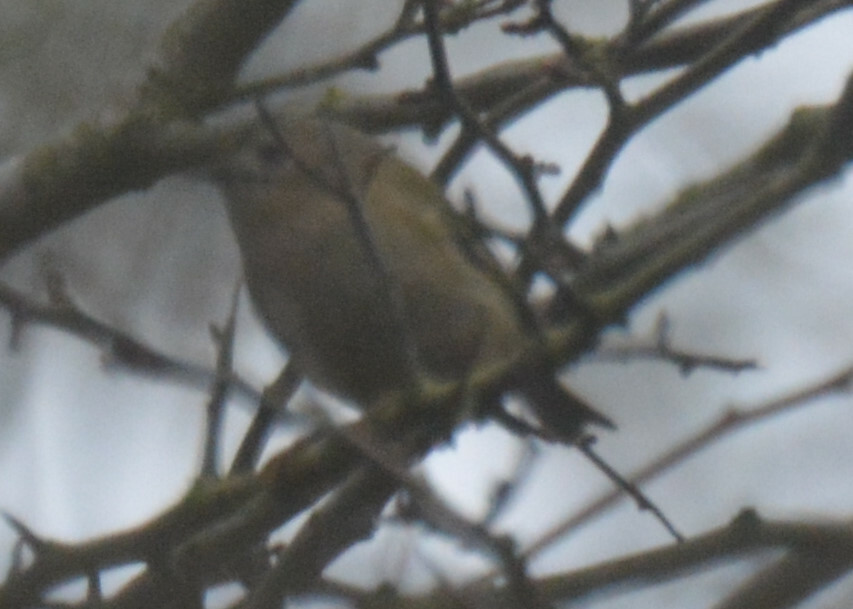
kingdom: Animalia
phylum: Chordata
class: Aves
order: Passeriformes
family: Regulidae
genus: Regulus
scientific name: Regulus regulus
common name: Goldcrest
